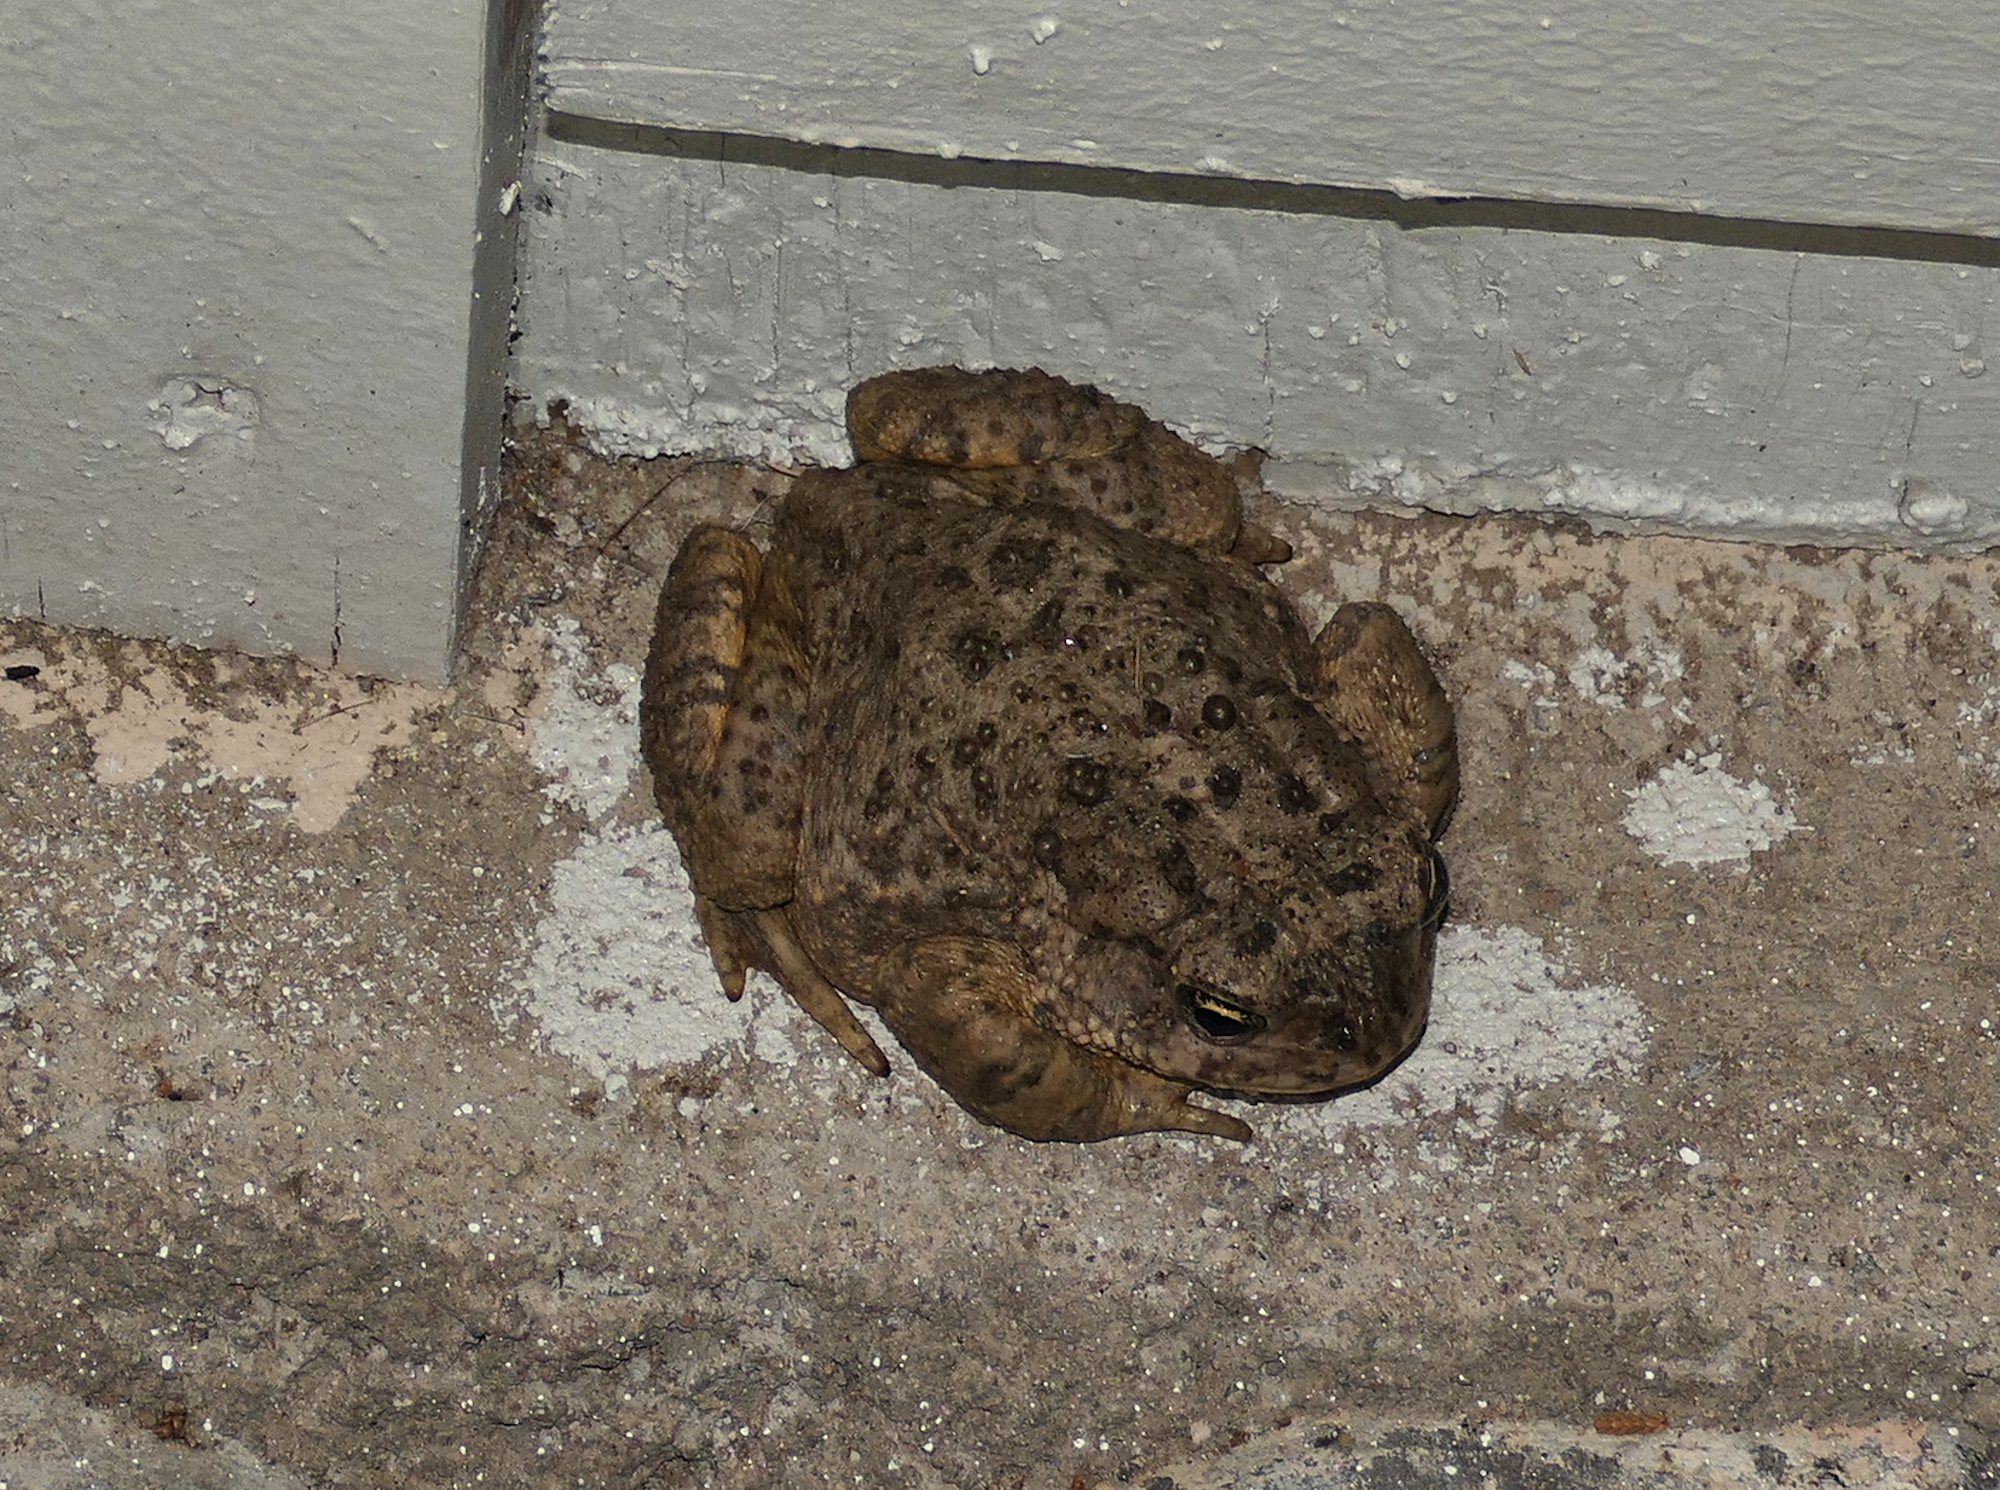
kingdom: Animalia
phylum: Chordata
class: Amphibia
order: Anura
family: Bufonidae
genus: Anaxyrus
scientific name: Anaxyrus microscaphus
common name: Arizona toad
